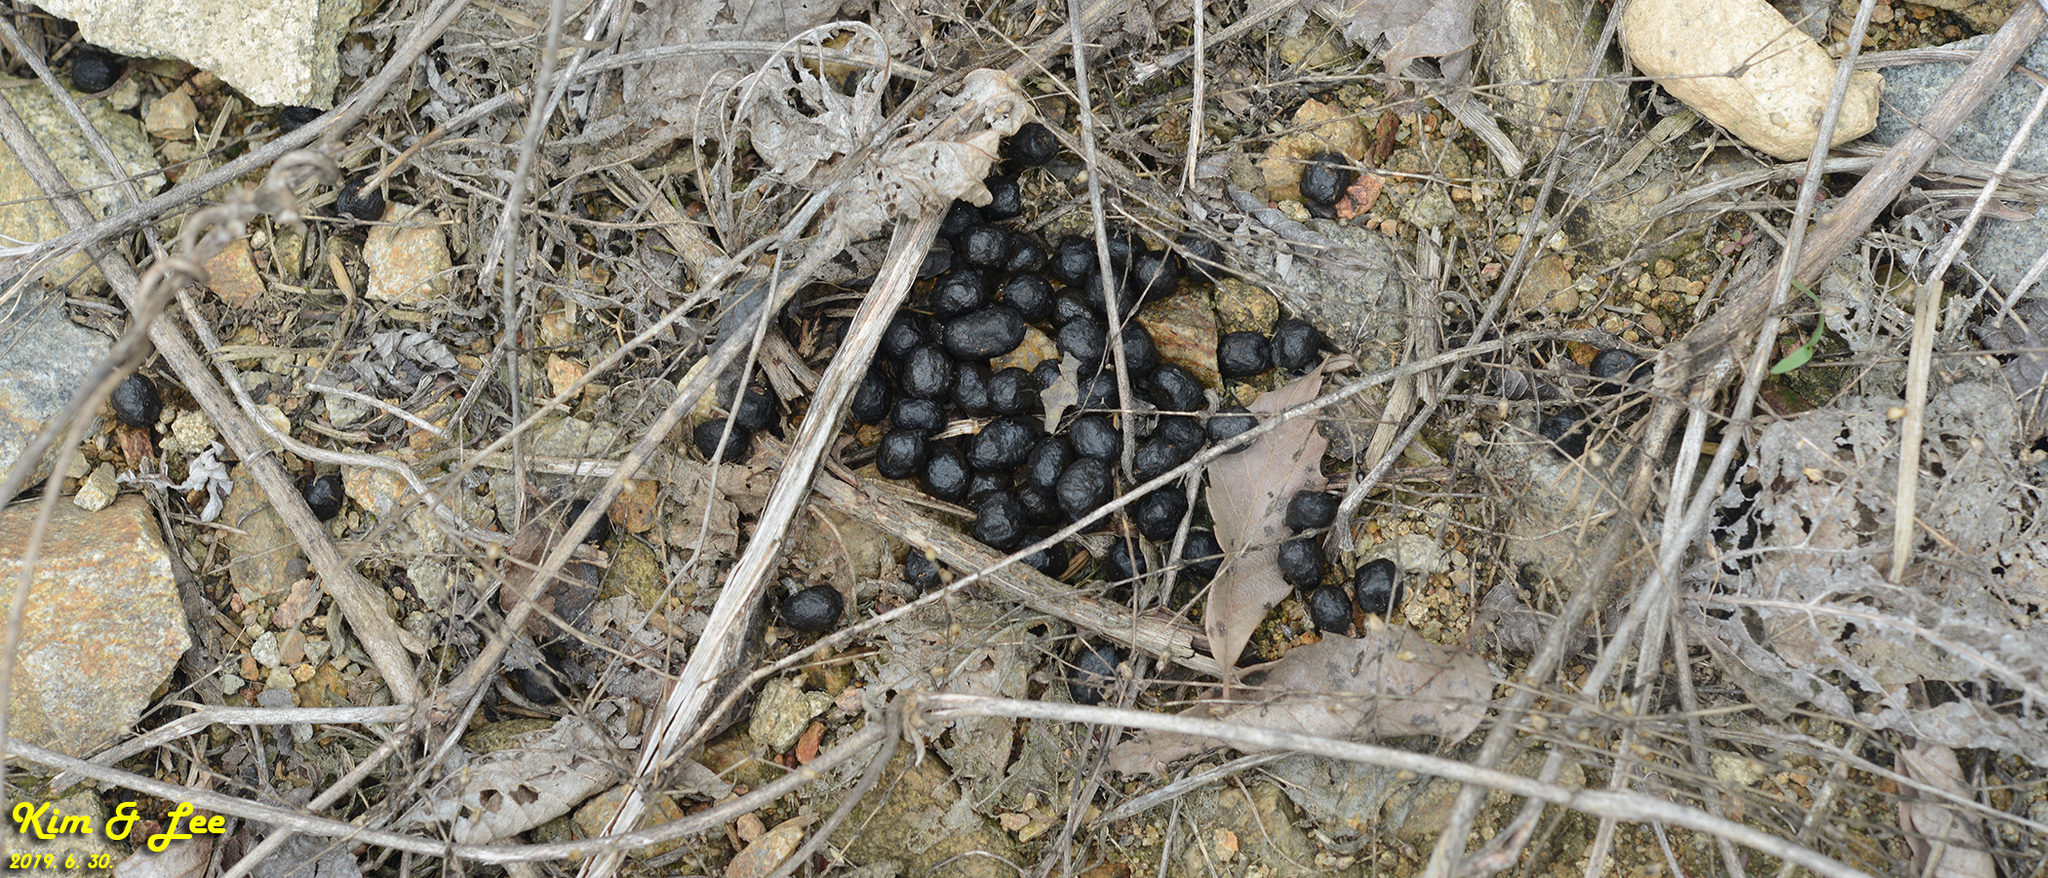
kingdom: Animalia
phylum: Chordata
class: Mammalia
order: Artiodactyla
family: Cervidae
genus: Hydropotes
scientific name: Hydropotes inermis
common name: Chinese water deer
